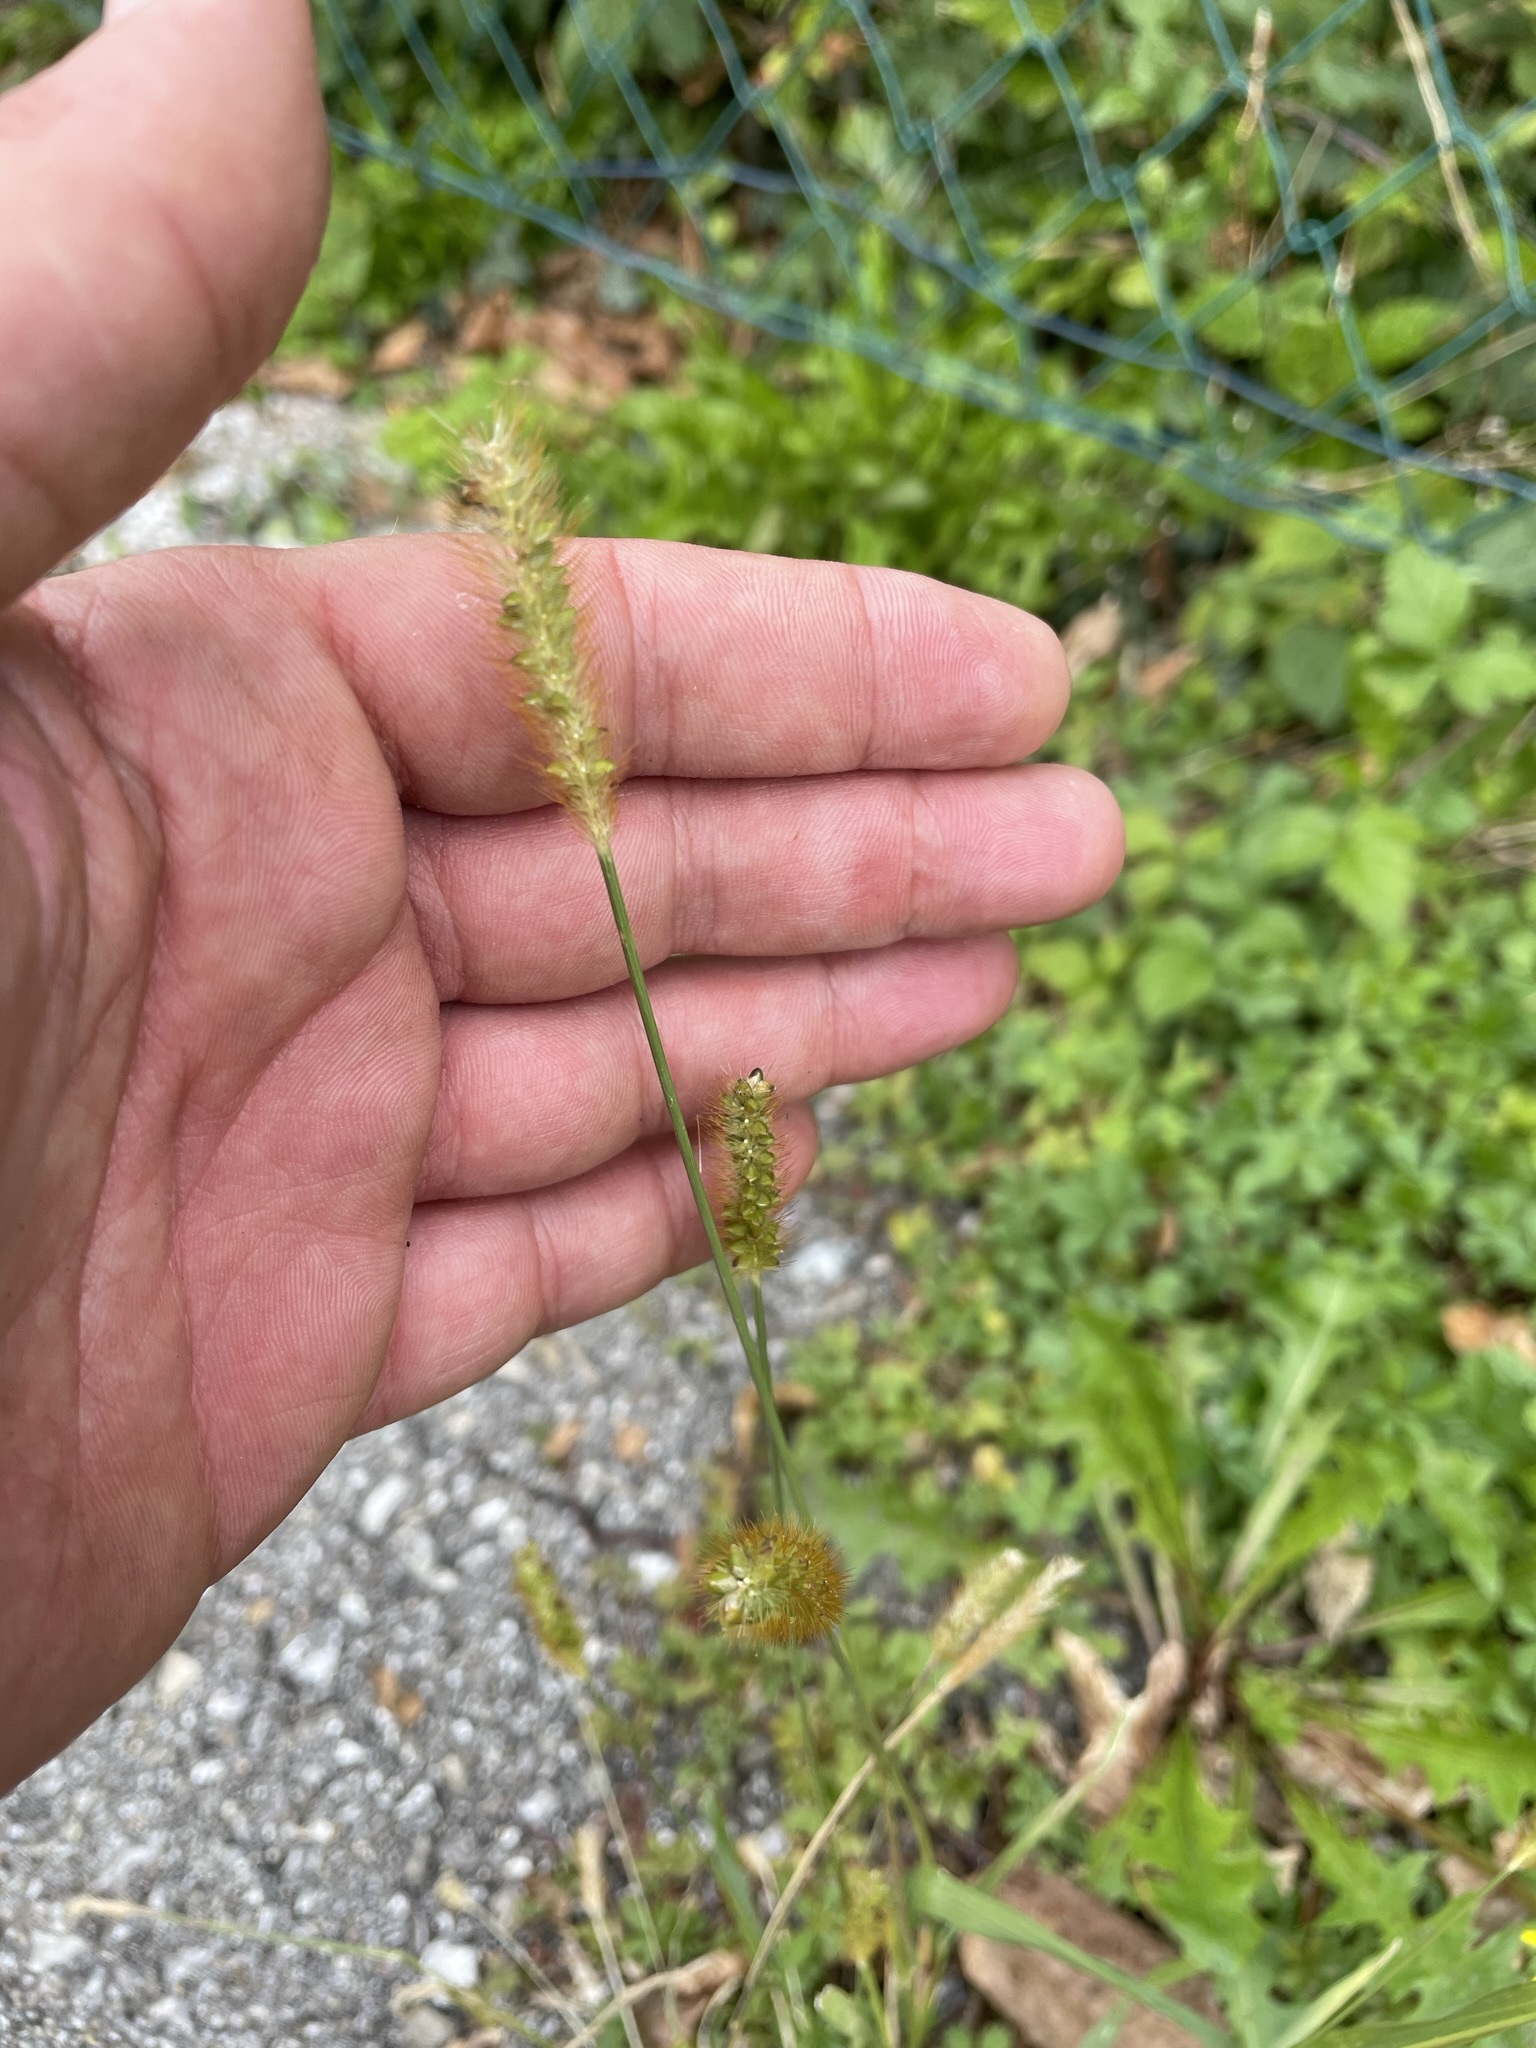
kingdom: Plantae
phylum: Tracheophyta
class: Liliopsida
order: Poales
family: Poaceae
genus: Setaria
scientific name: Setaria pumila
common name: Yellow bristle-grass
